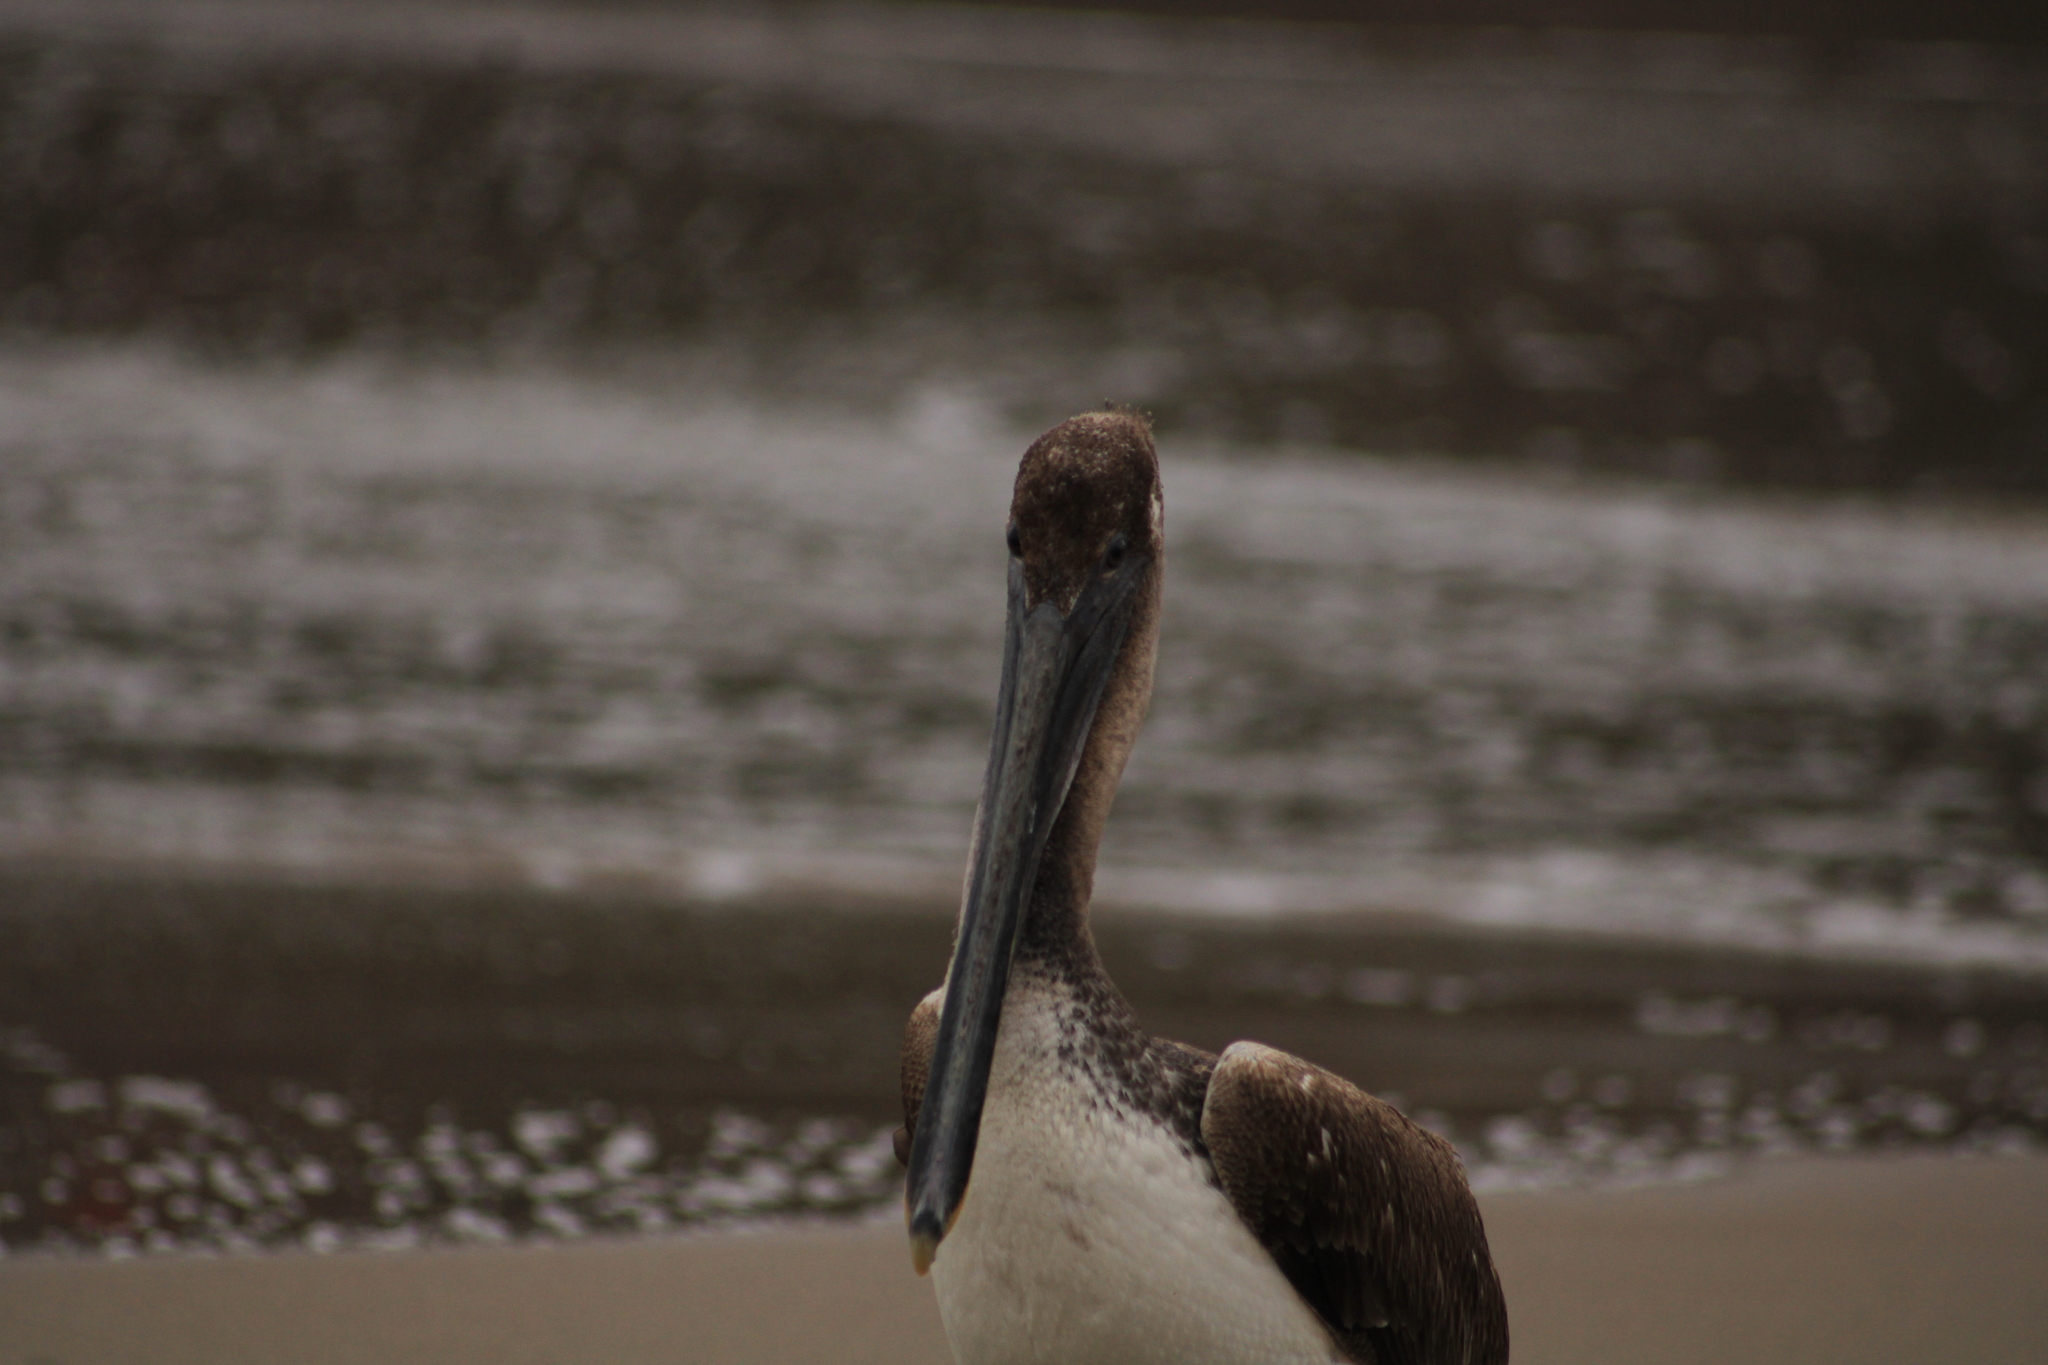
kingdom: Animalia
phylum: Chordata
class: Aves
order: Pelecaniformes
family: Pelecanidae
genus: Pelecanus
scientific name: Pelecanus occidentalis
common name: Brown pelican
